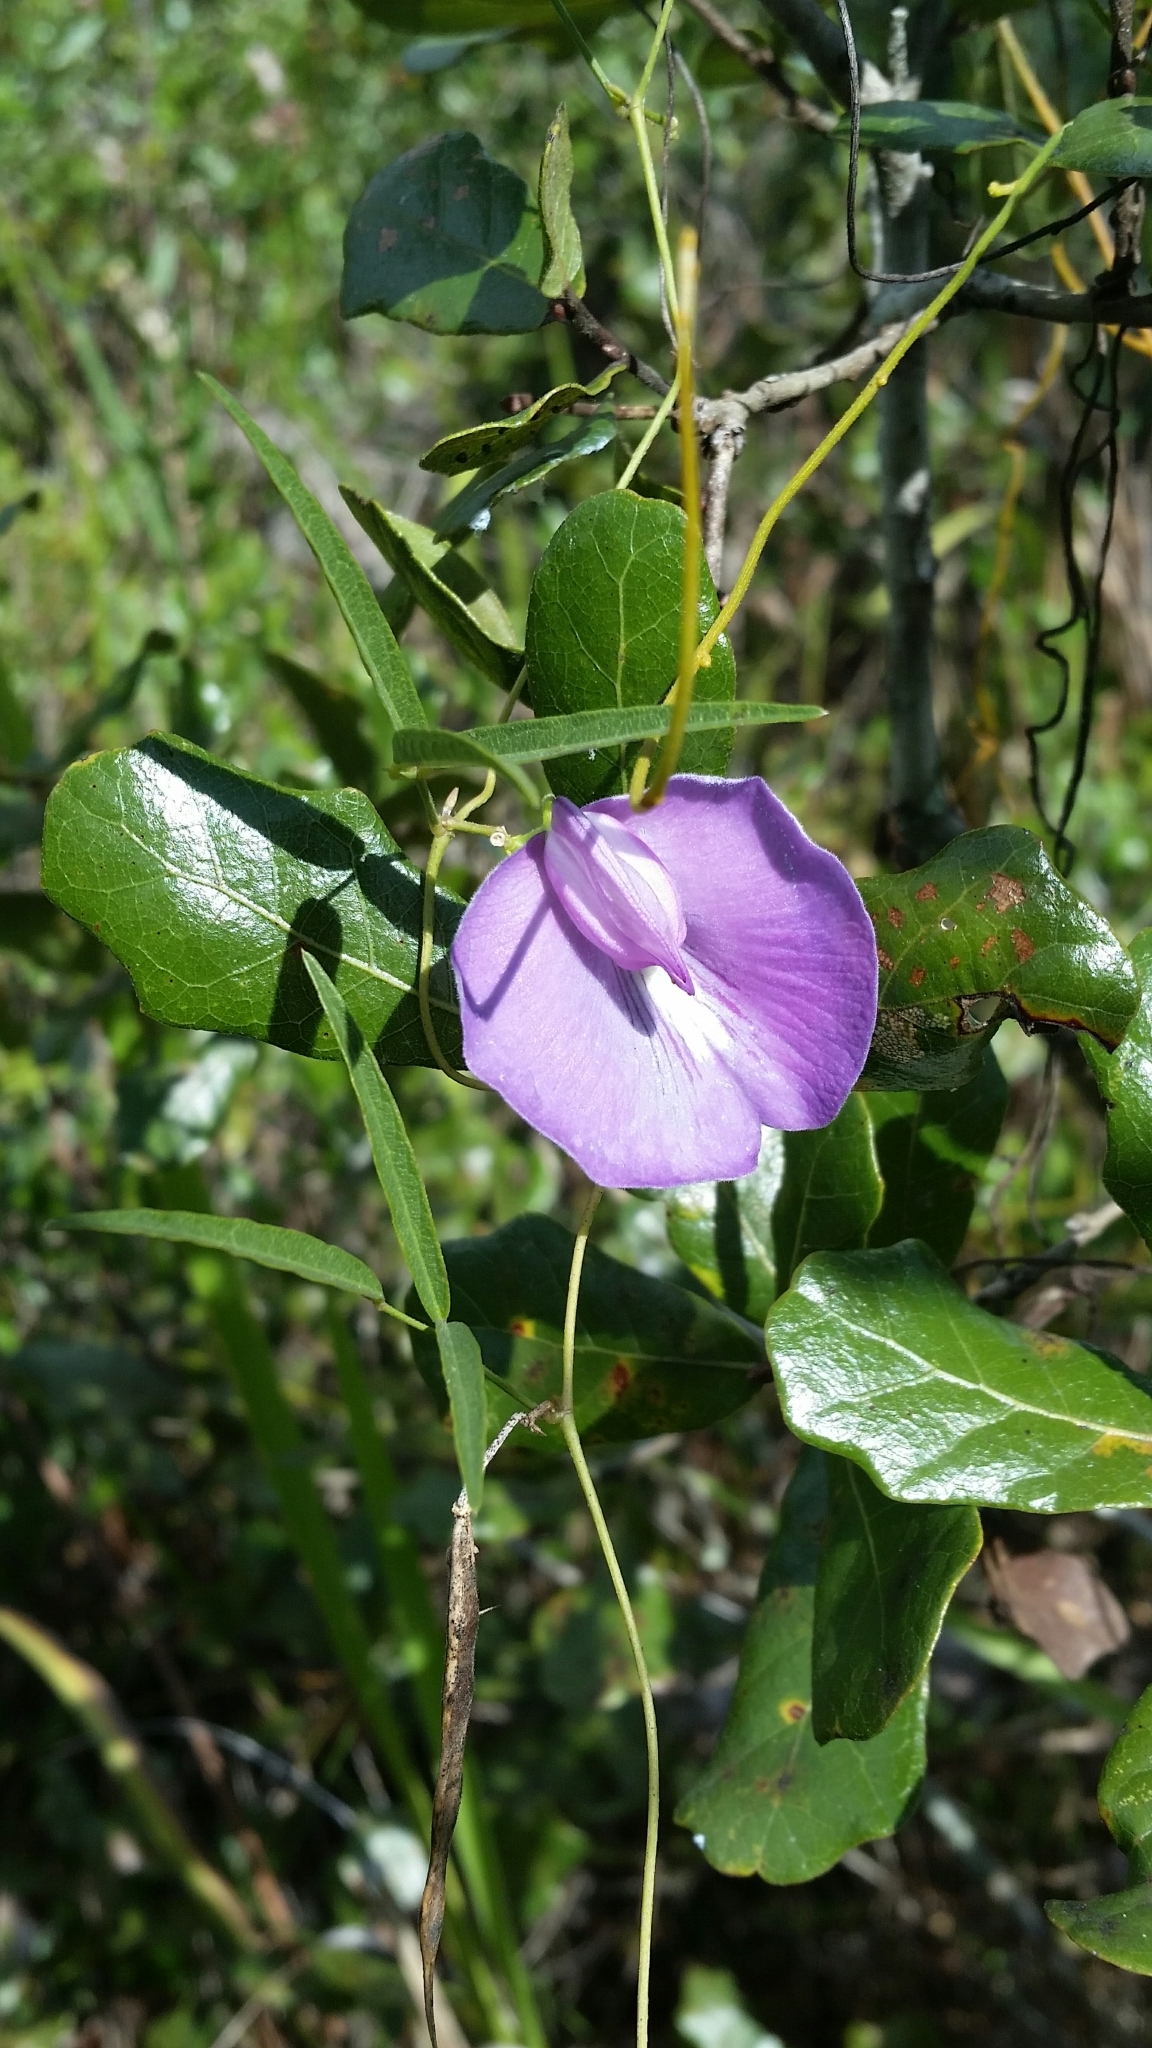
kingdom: Plantae
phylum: Tracheophyta
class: Magnoliopsida
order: Fabales
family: Fabaceae
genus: Centrosema
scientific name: Centrosema virginianum
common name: Butterfly-pea
